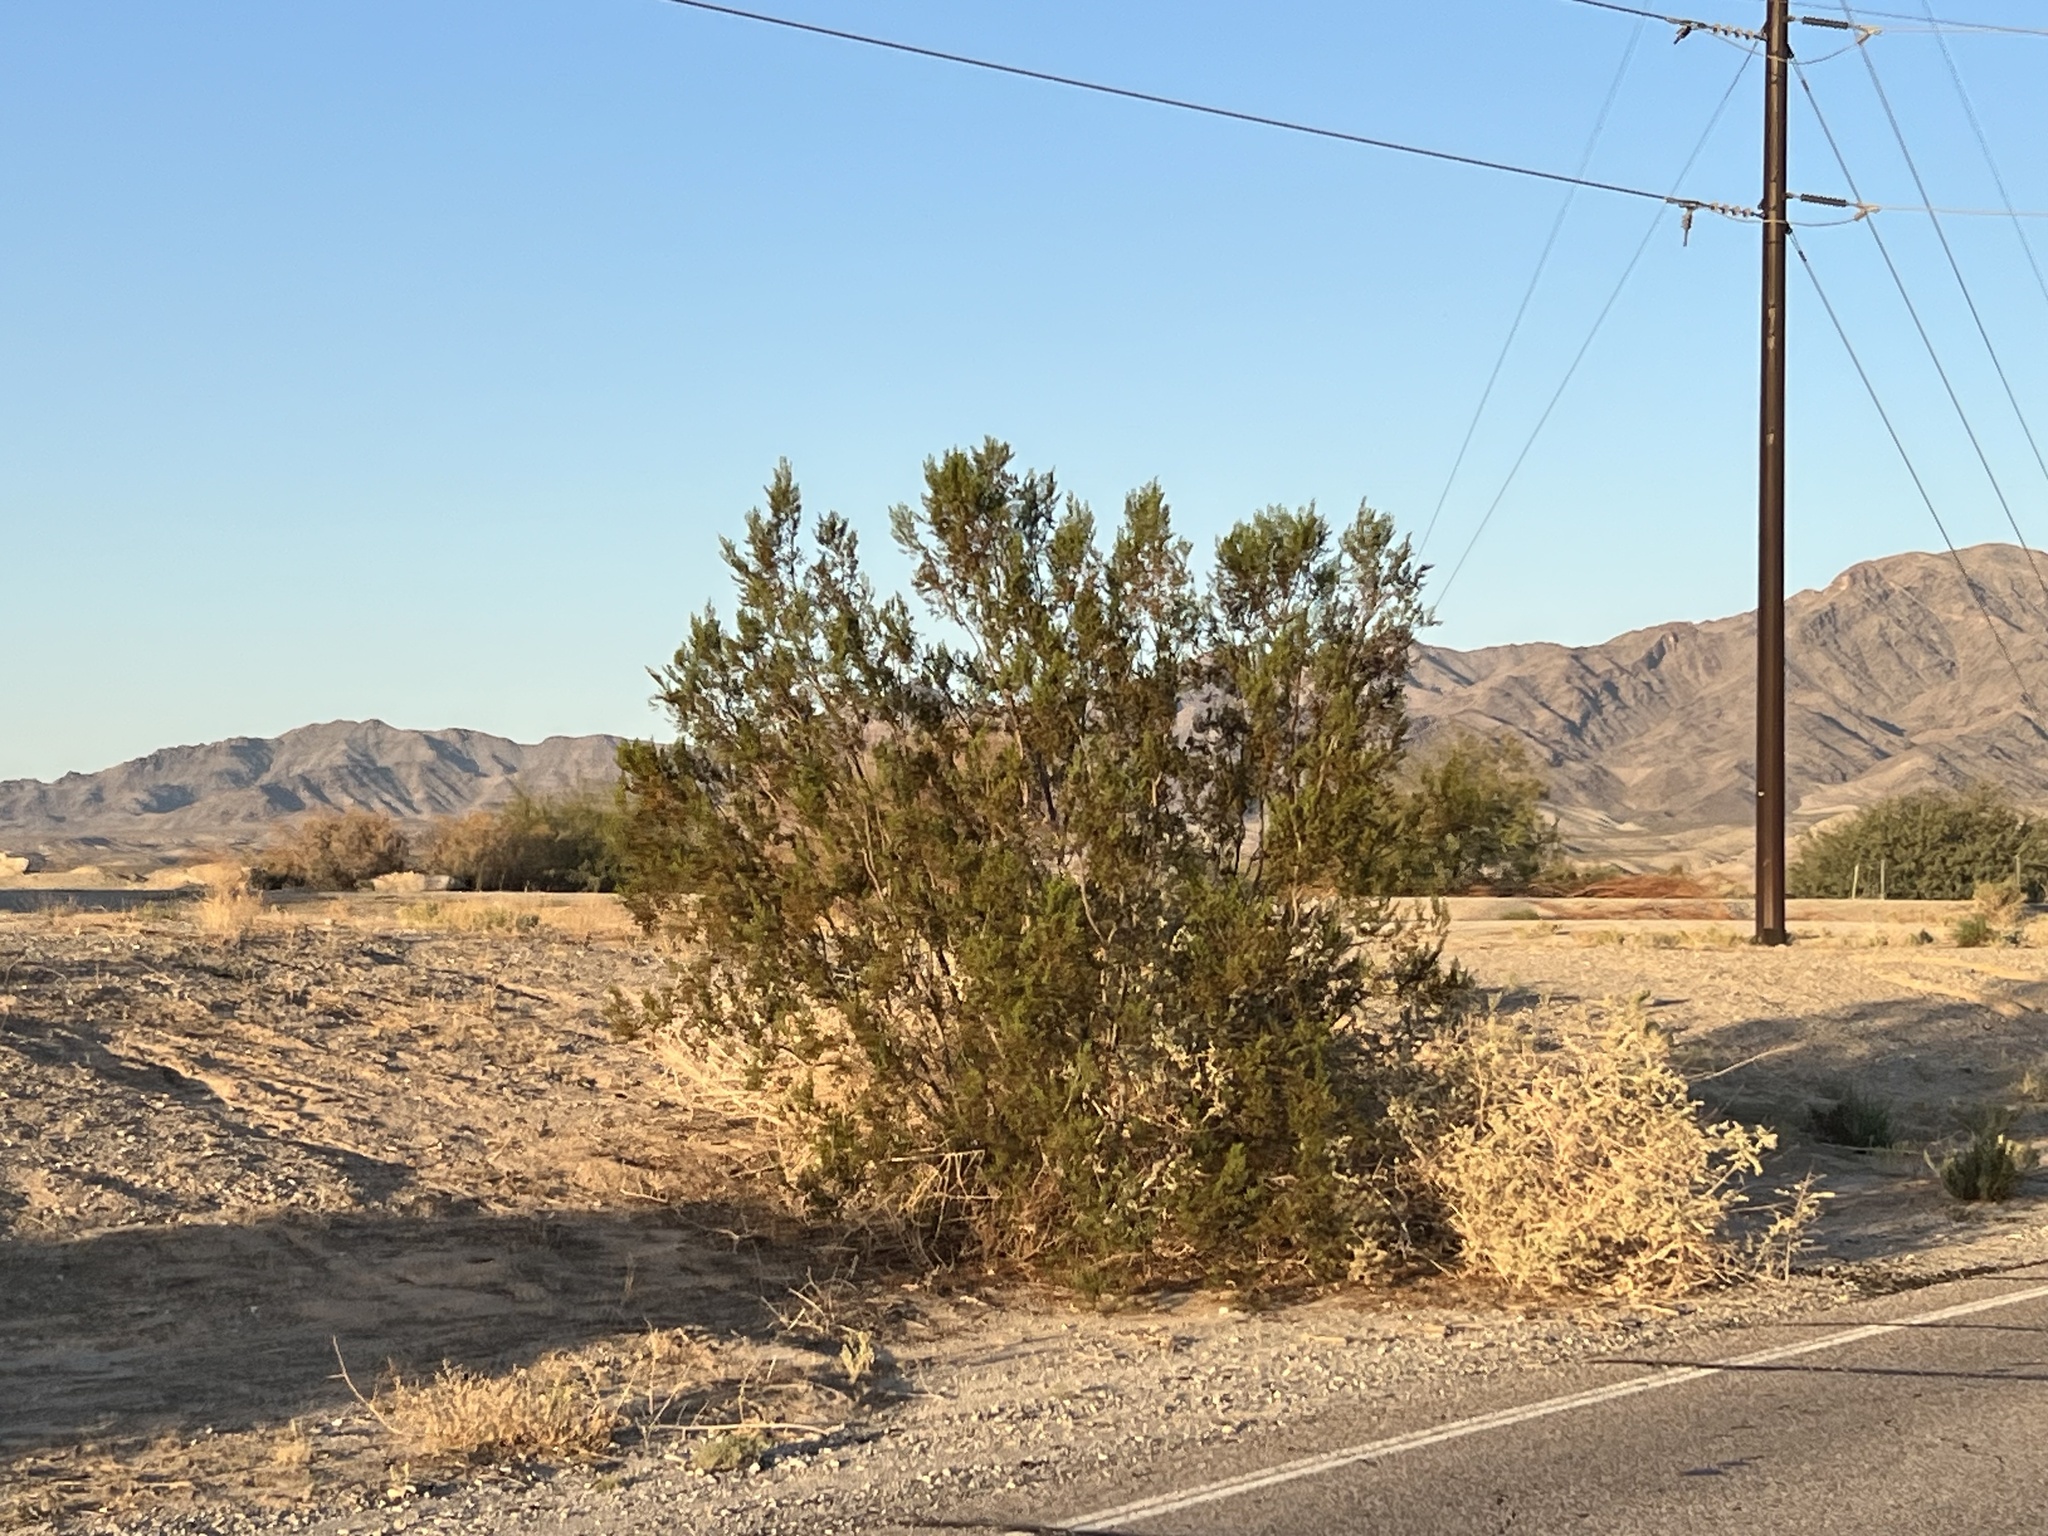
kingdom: Plantae
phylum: Tracheophyta
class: Magnoliopsida
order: Zygophyllales
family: Zygophyllaceae
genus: Larrea
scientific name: Larrea tridentata
